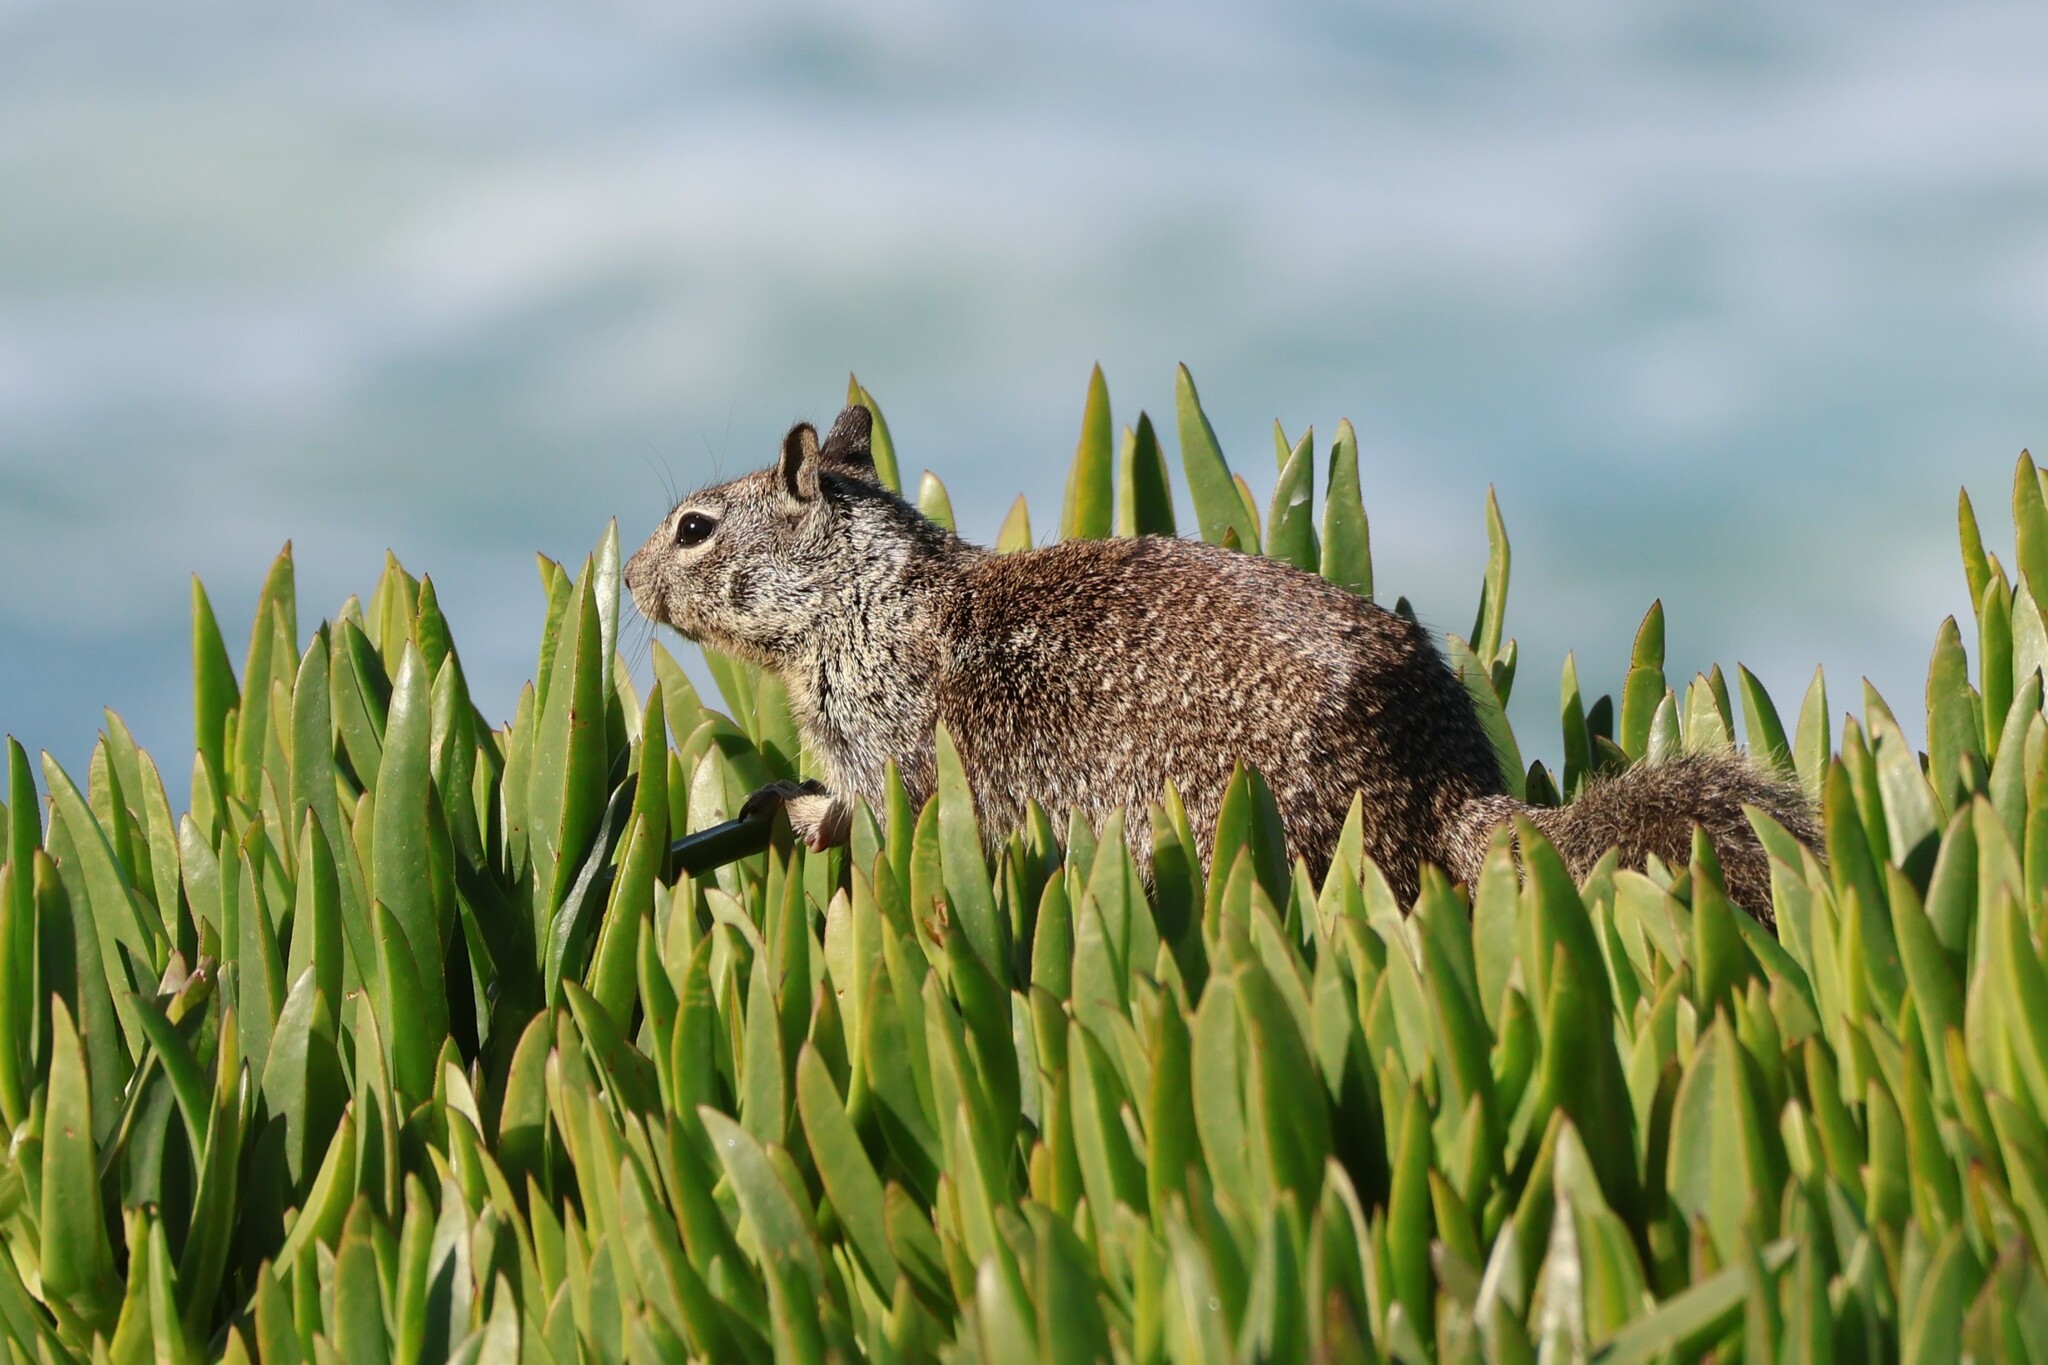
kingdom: Animalia
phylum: Chordata
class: Mammalia
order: Rodentia
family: Sciuridae
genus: Otospermophilus
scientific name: Otospermophilus beecheyi
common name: California ground squirrel
